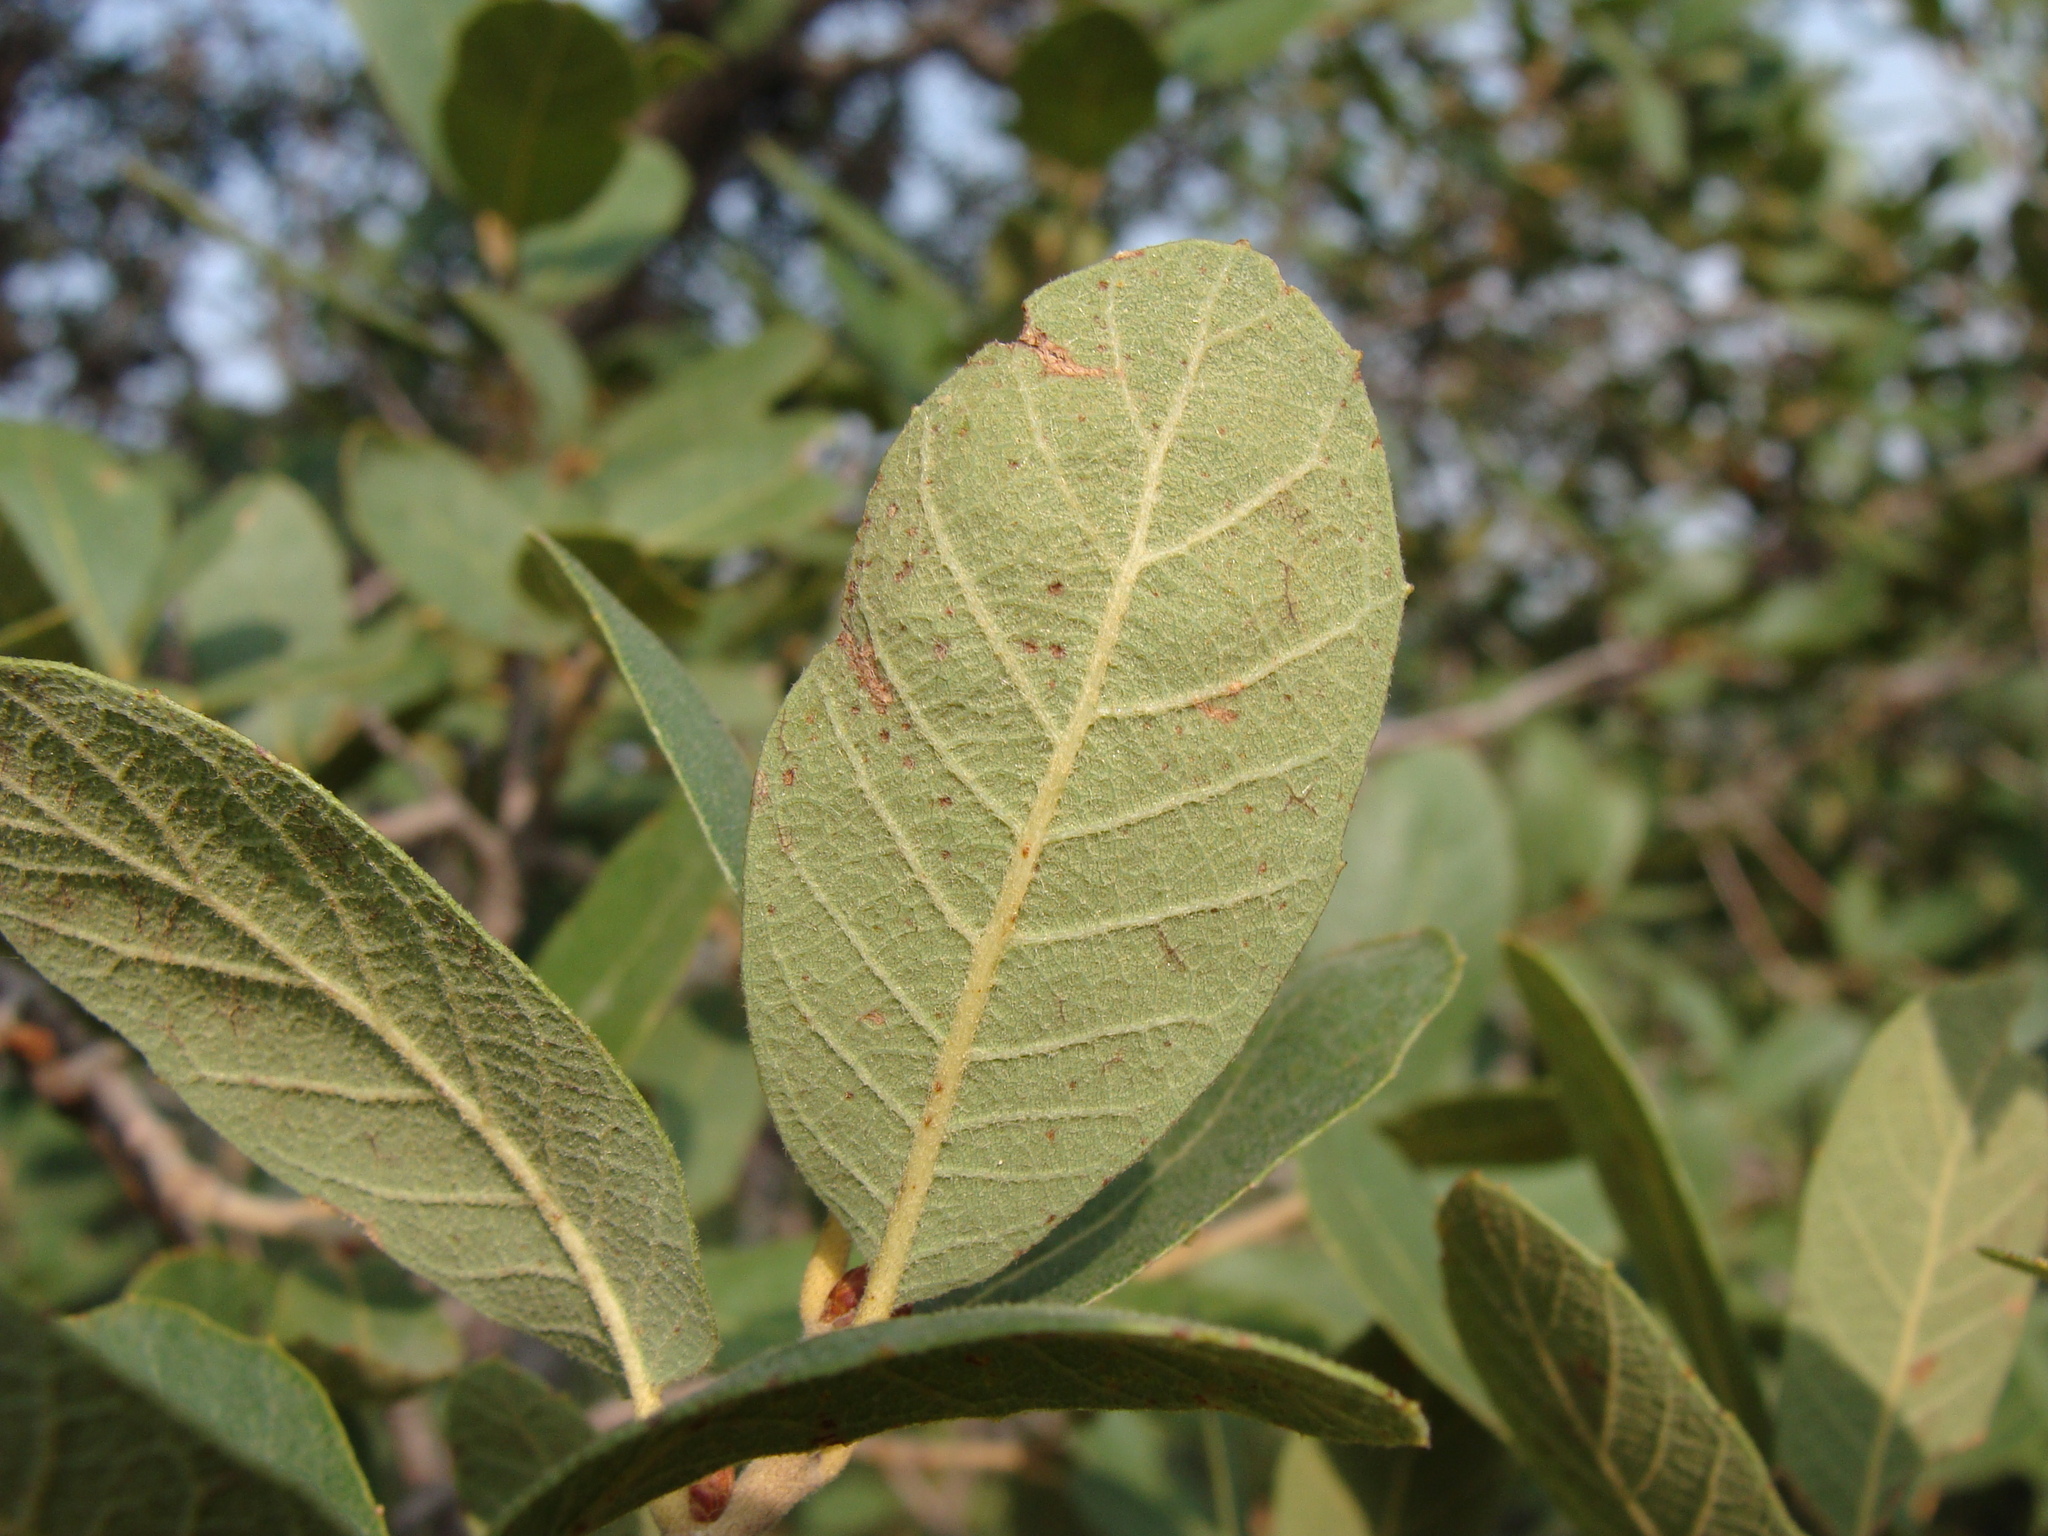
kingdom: Plantae
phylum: Tracheophyta
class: Magnoliopsida
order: Fagales
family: Fagaceae
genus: Quercus
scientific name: Quercus arizonica
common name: Arizona white oak
